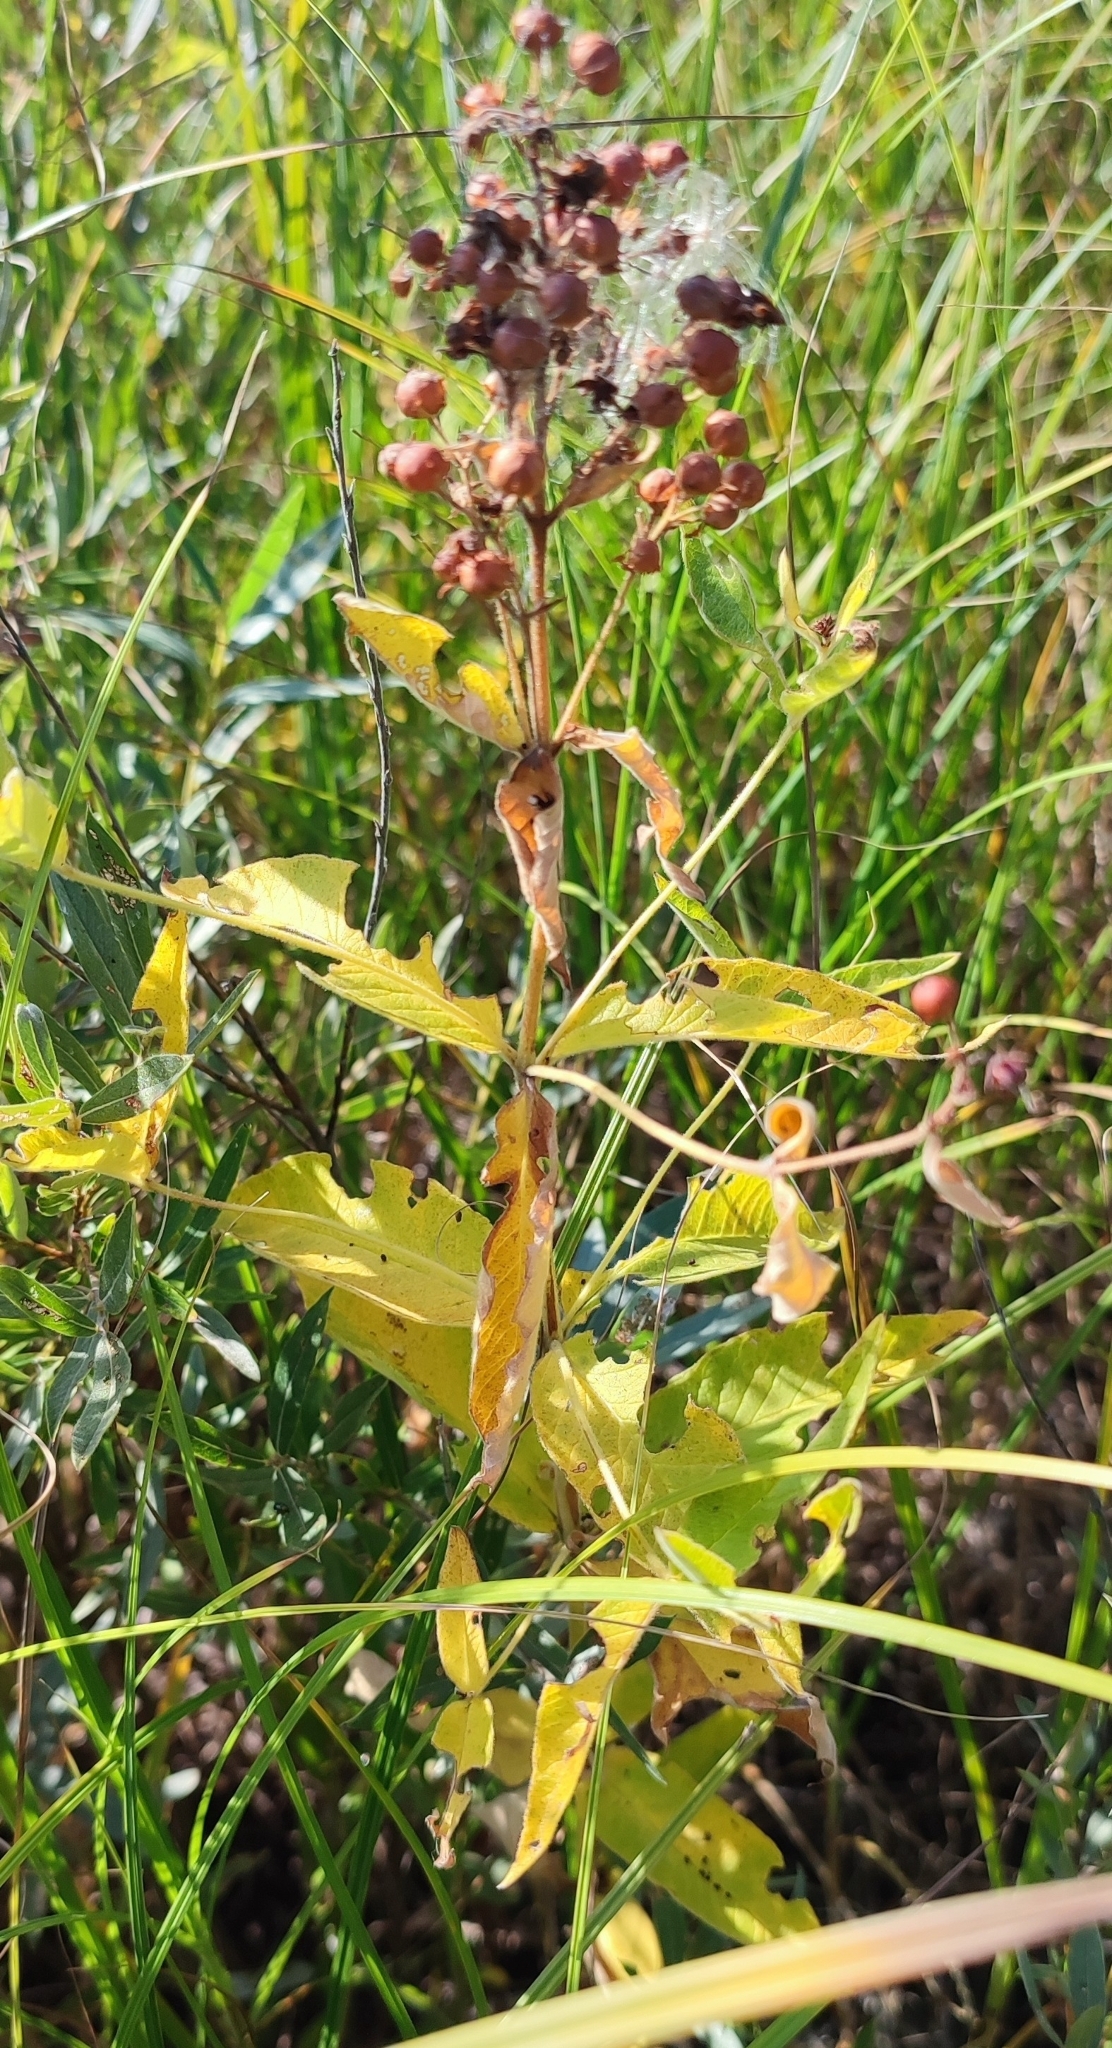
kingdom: Plantae
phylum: Tracheophyta
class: Magnoliopsida
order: Ericales
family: Primulaceae
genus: Lysimachia
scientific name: Lysimachia vulgaris
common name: Yellow loosestrife
